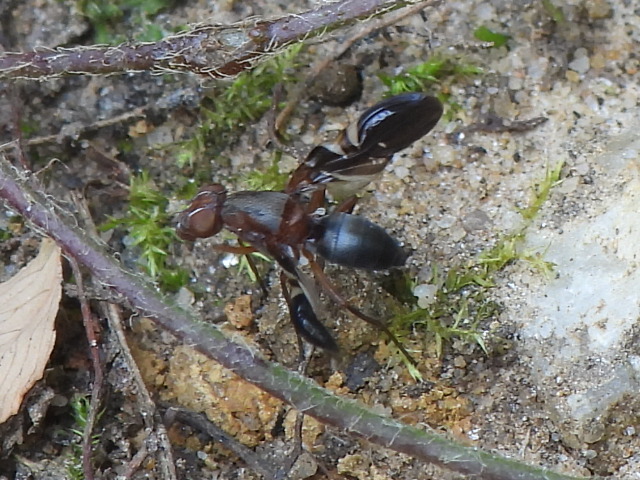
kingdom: Animalia
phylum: Arthropoda
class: Insecta
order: Diptera
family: Ulidiidae
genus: Delphinia
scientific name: Delphinia picta
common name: Common picture-winged fly
